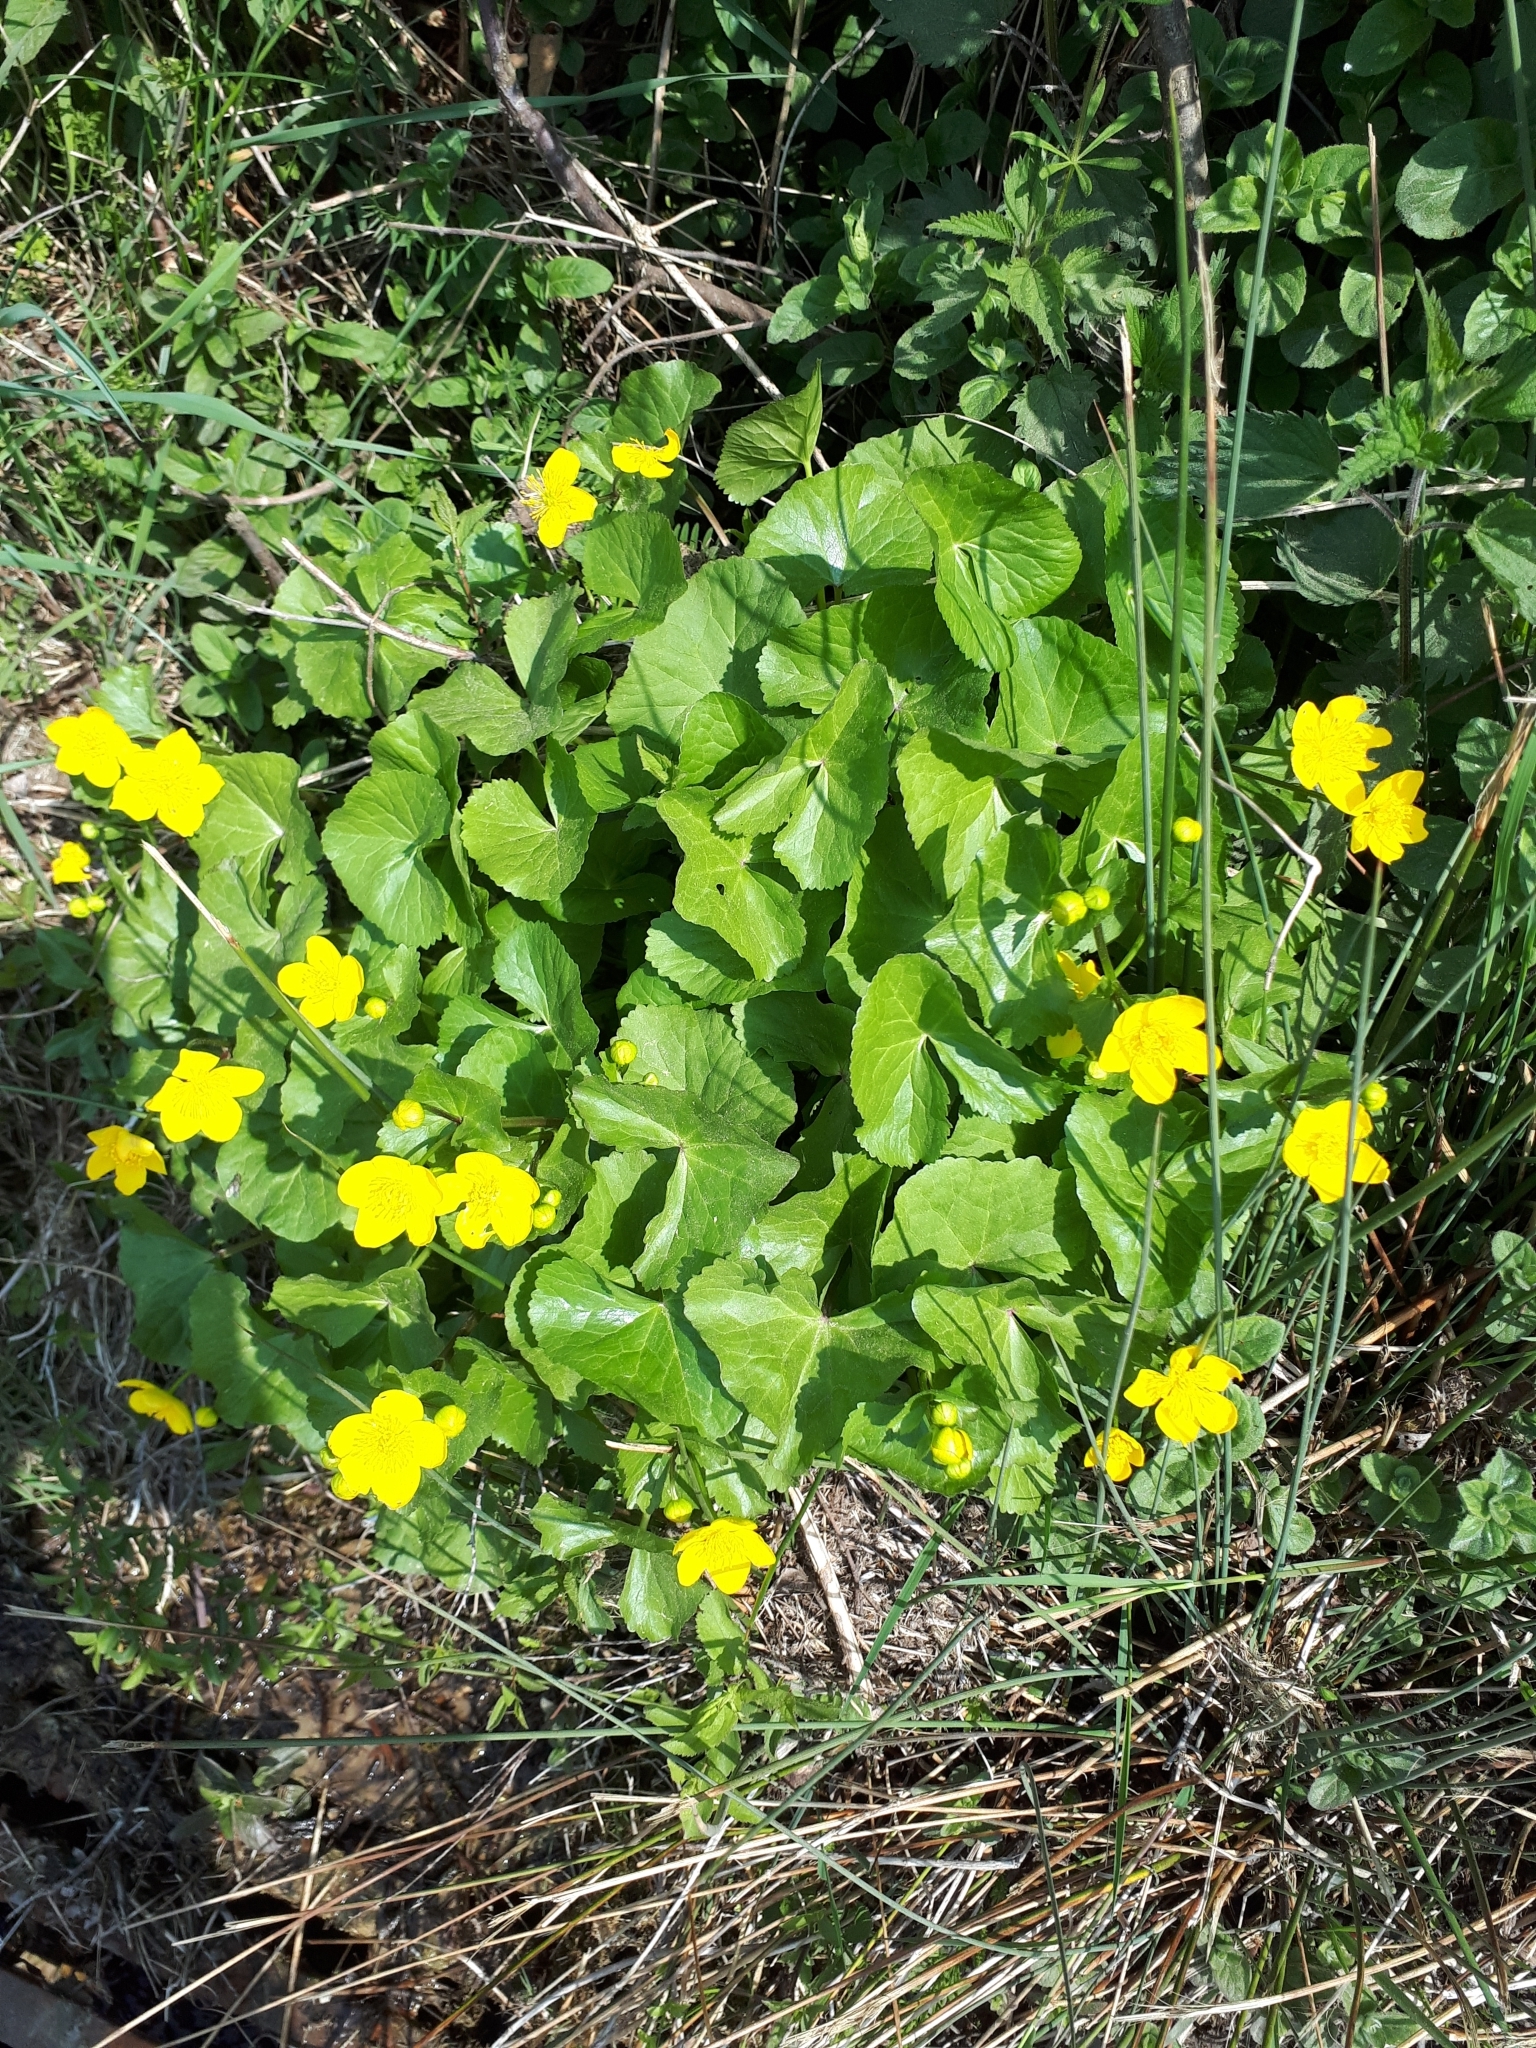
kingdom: Plantae
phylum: Tracheophyta
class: Magnoliopsida
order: Ranunculales
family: Ranunculaceae
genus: Caltha
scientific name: Caltha palustris
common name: Marsh marigold
